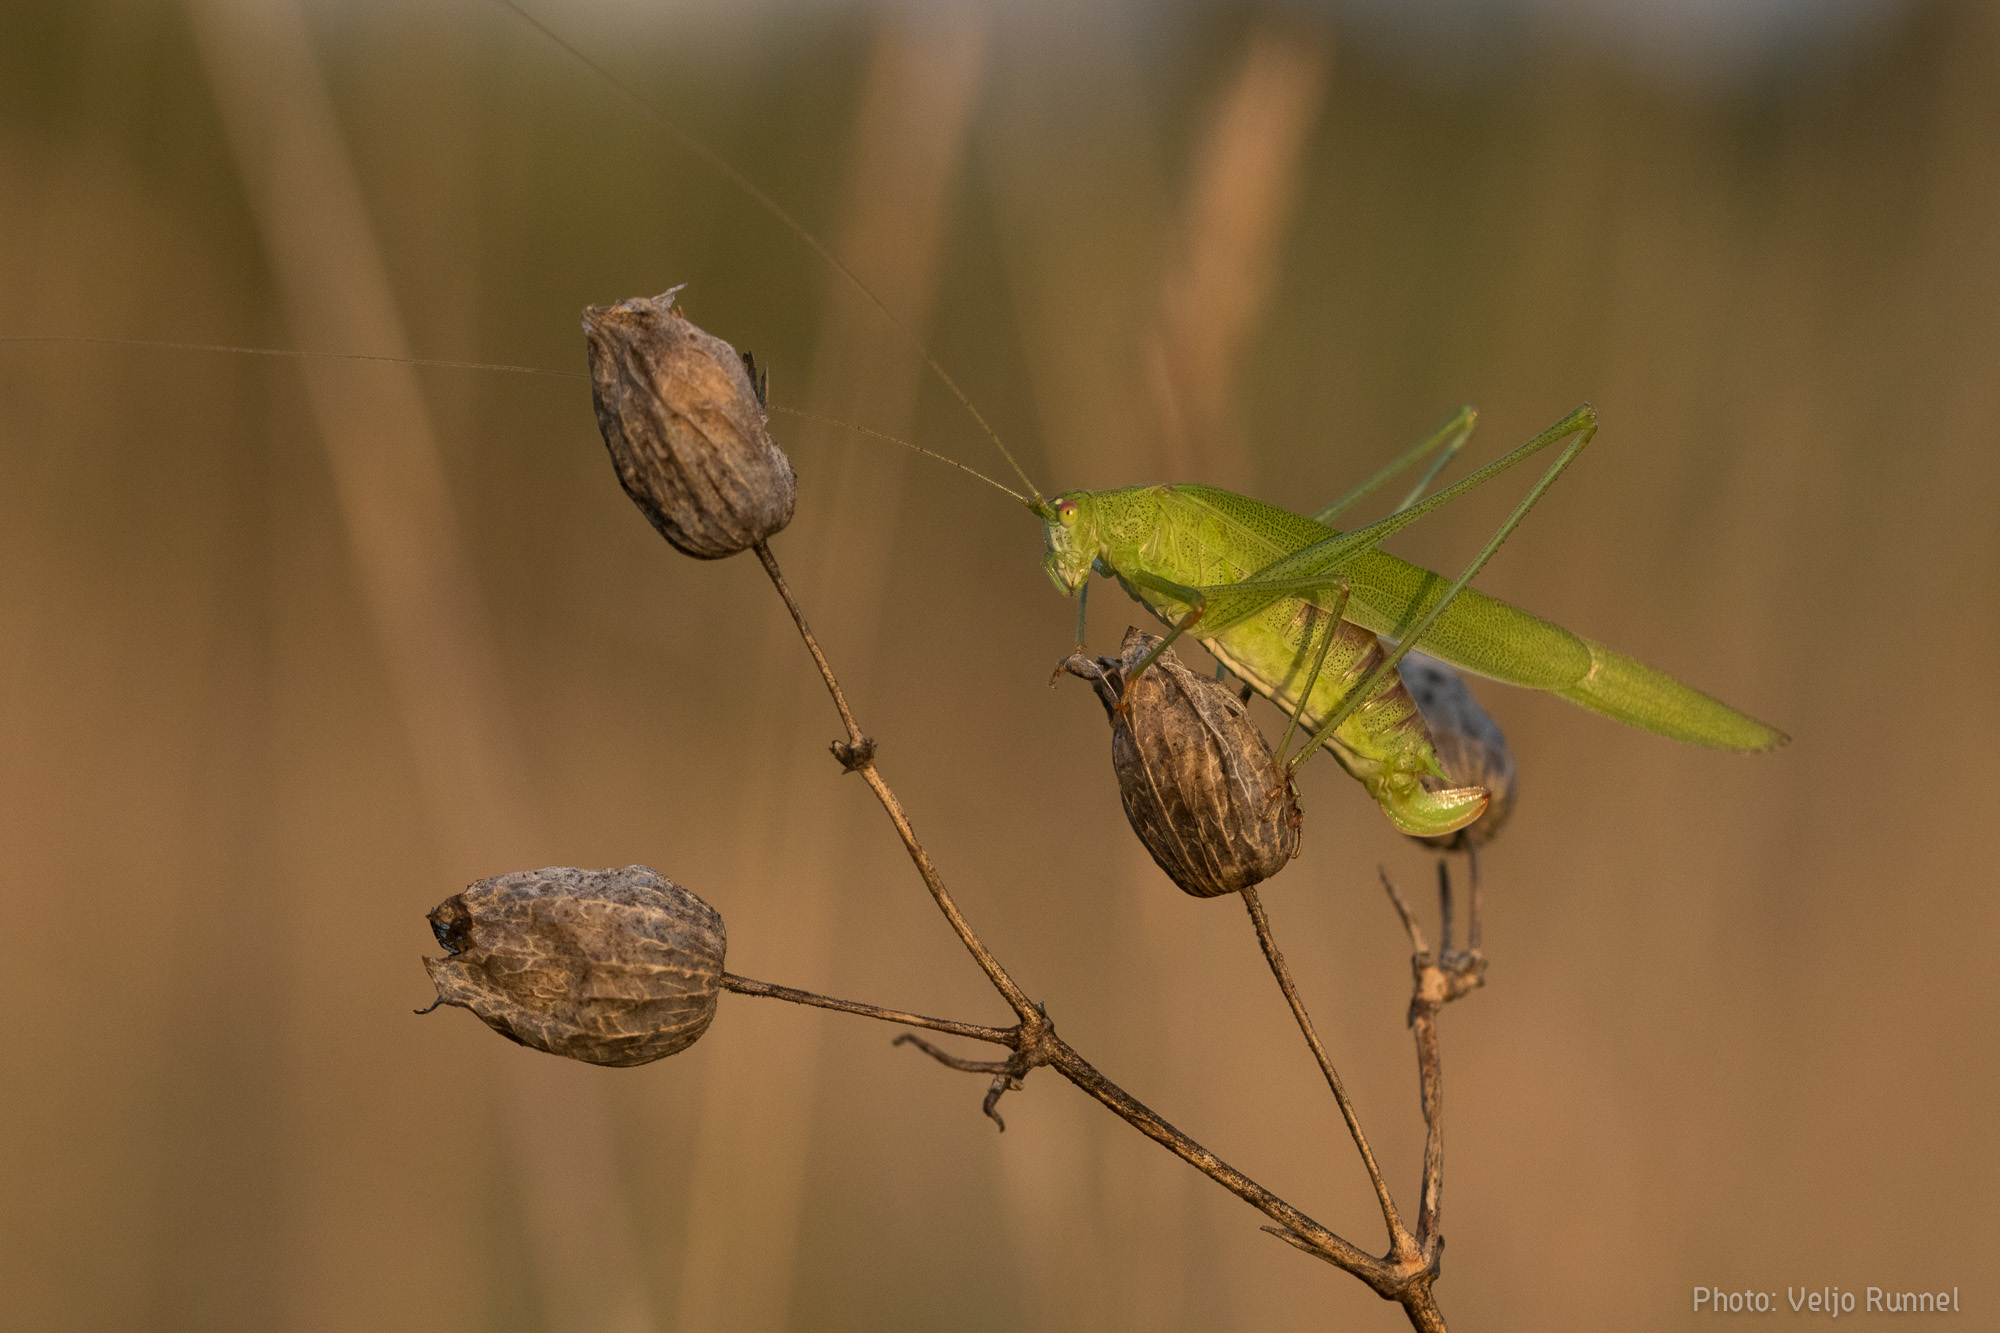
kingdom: Animalia
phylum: Arthropoda
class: Insecta
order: Orthoptera
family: Tettigoniidae
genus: Phaneroptera
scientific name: Phaneroptera falcata
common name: Sickle-bearing bush-cricket
